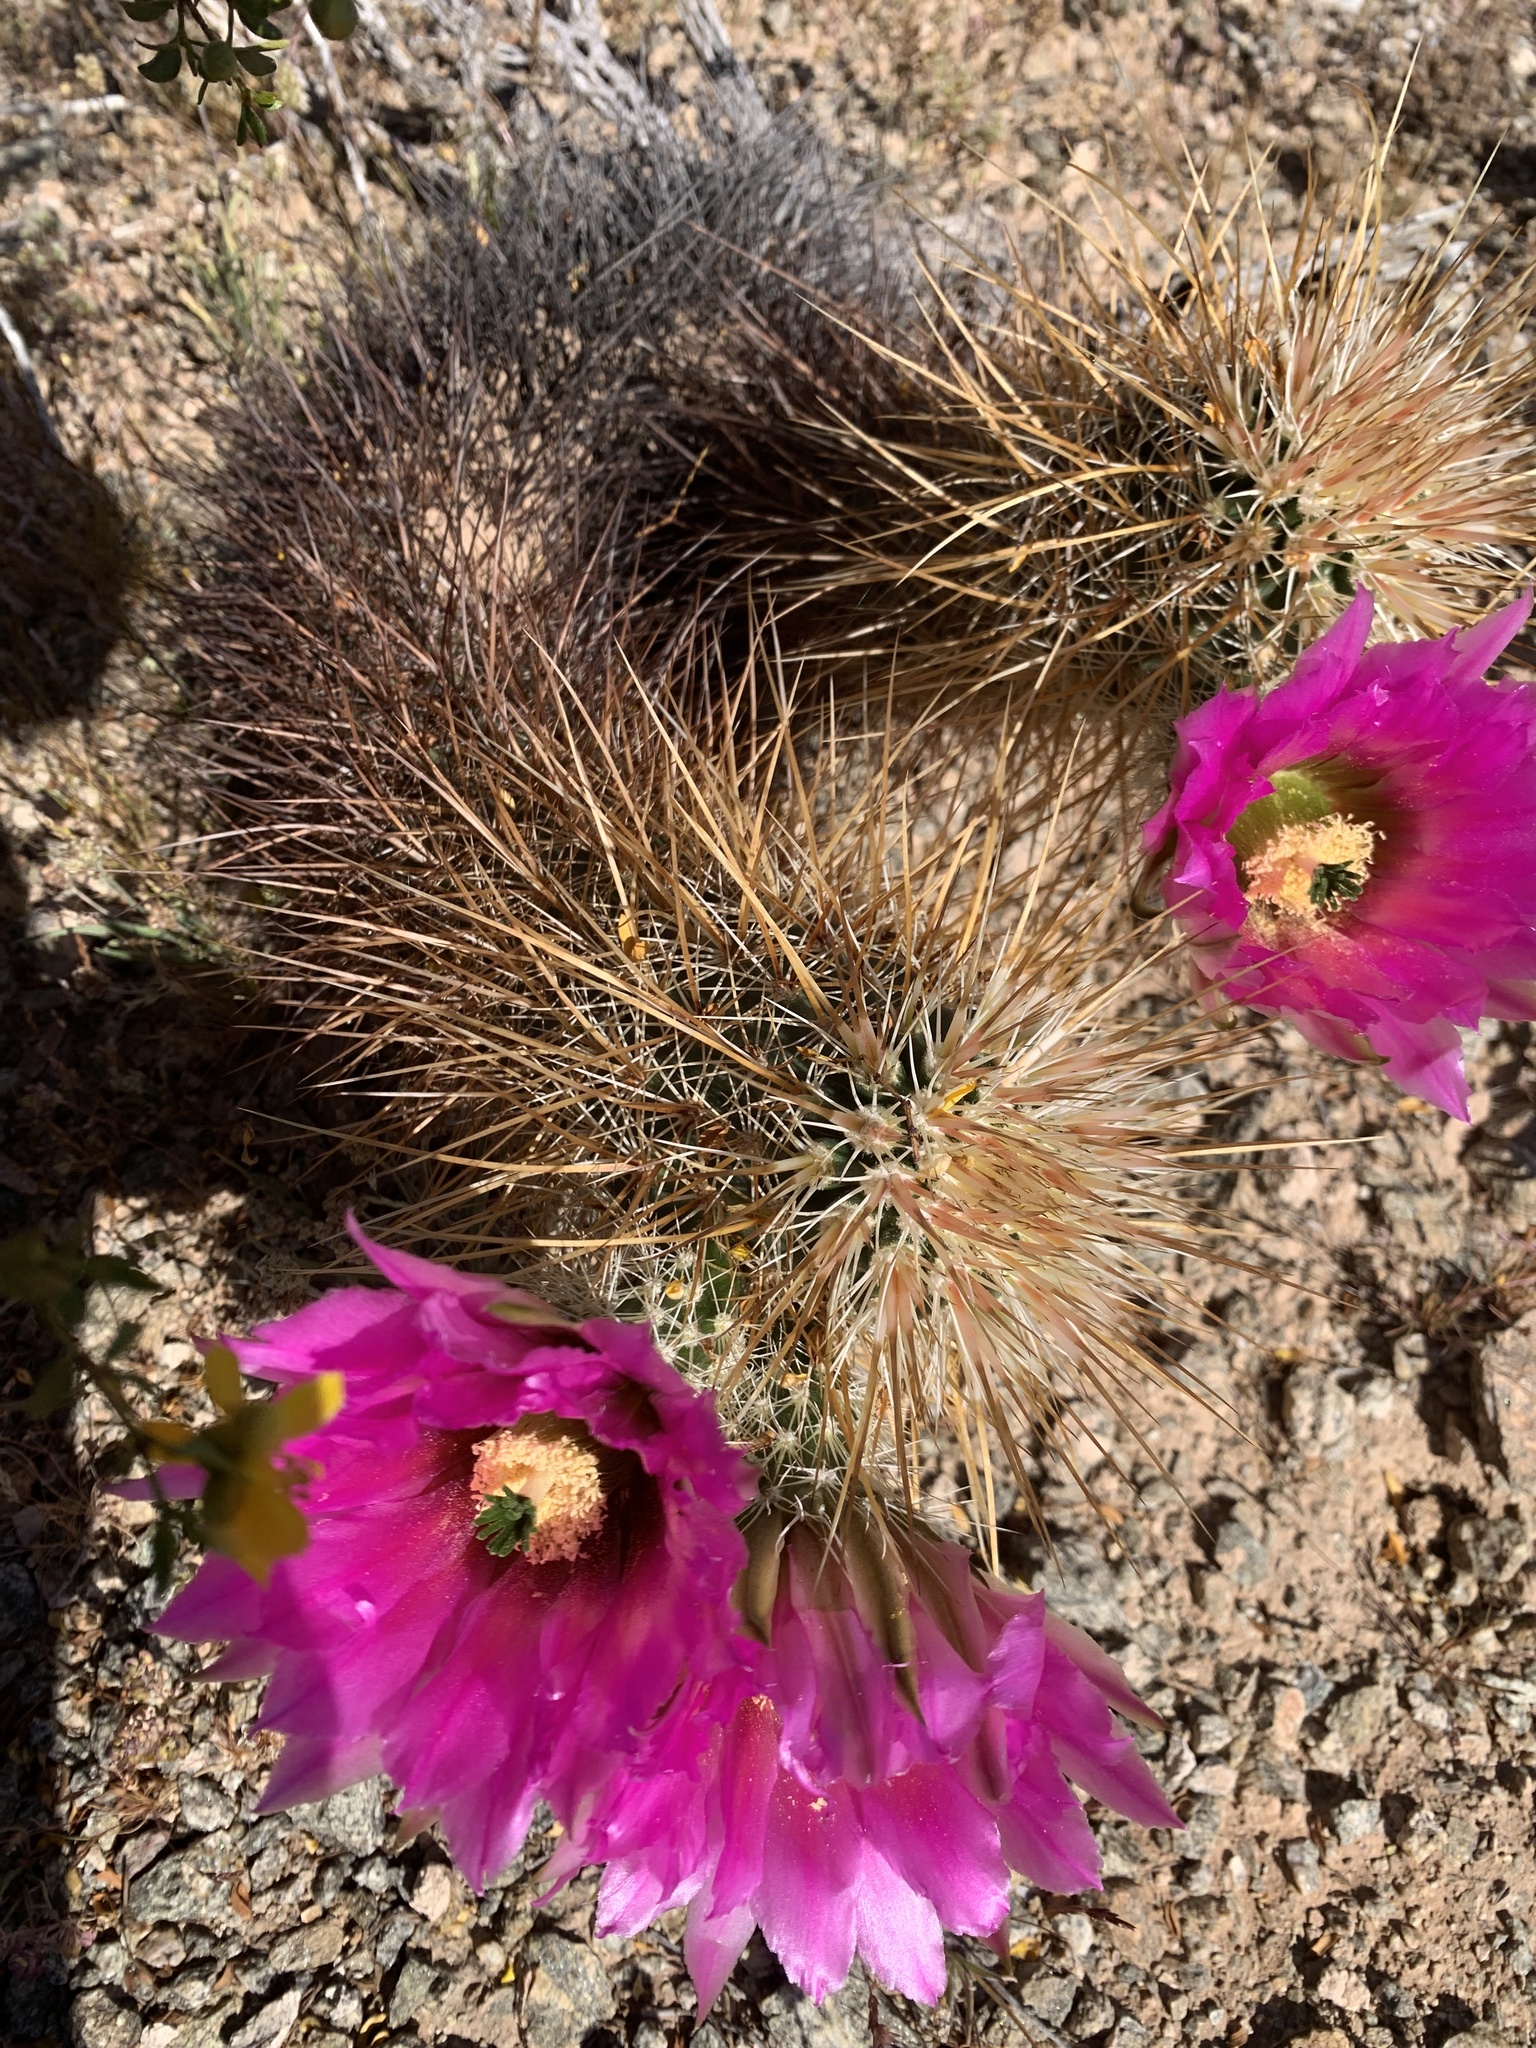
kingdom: Plantae
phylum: Tracheophyta
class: Magnoliopsida
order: Caryophyllales
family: Cactaceae
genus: Echinocereus
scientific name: Echinocereus engelmannii
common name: Engelmann's hedgehog cactus
